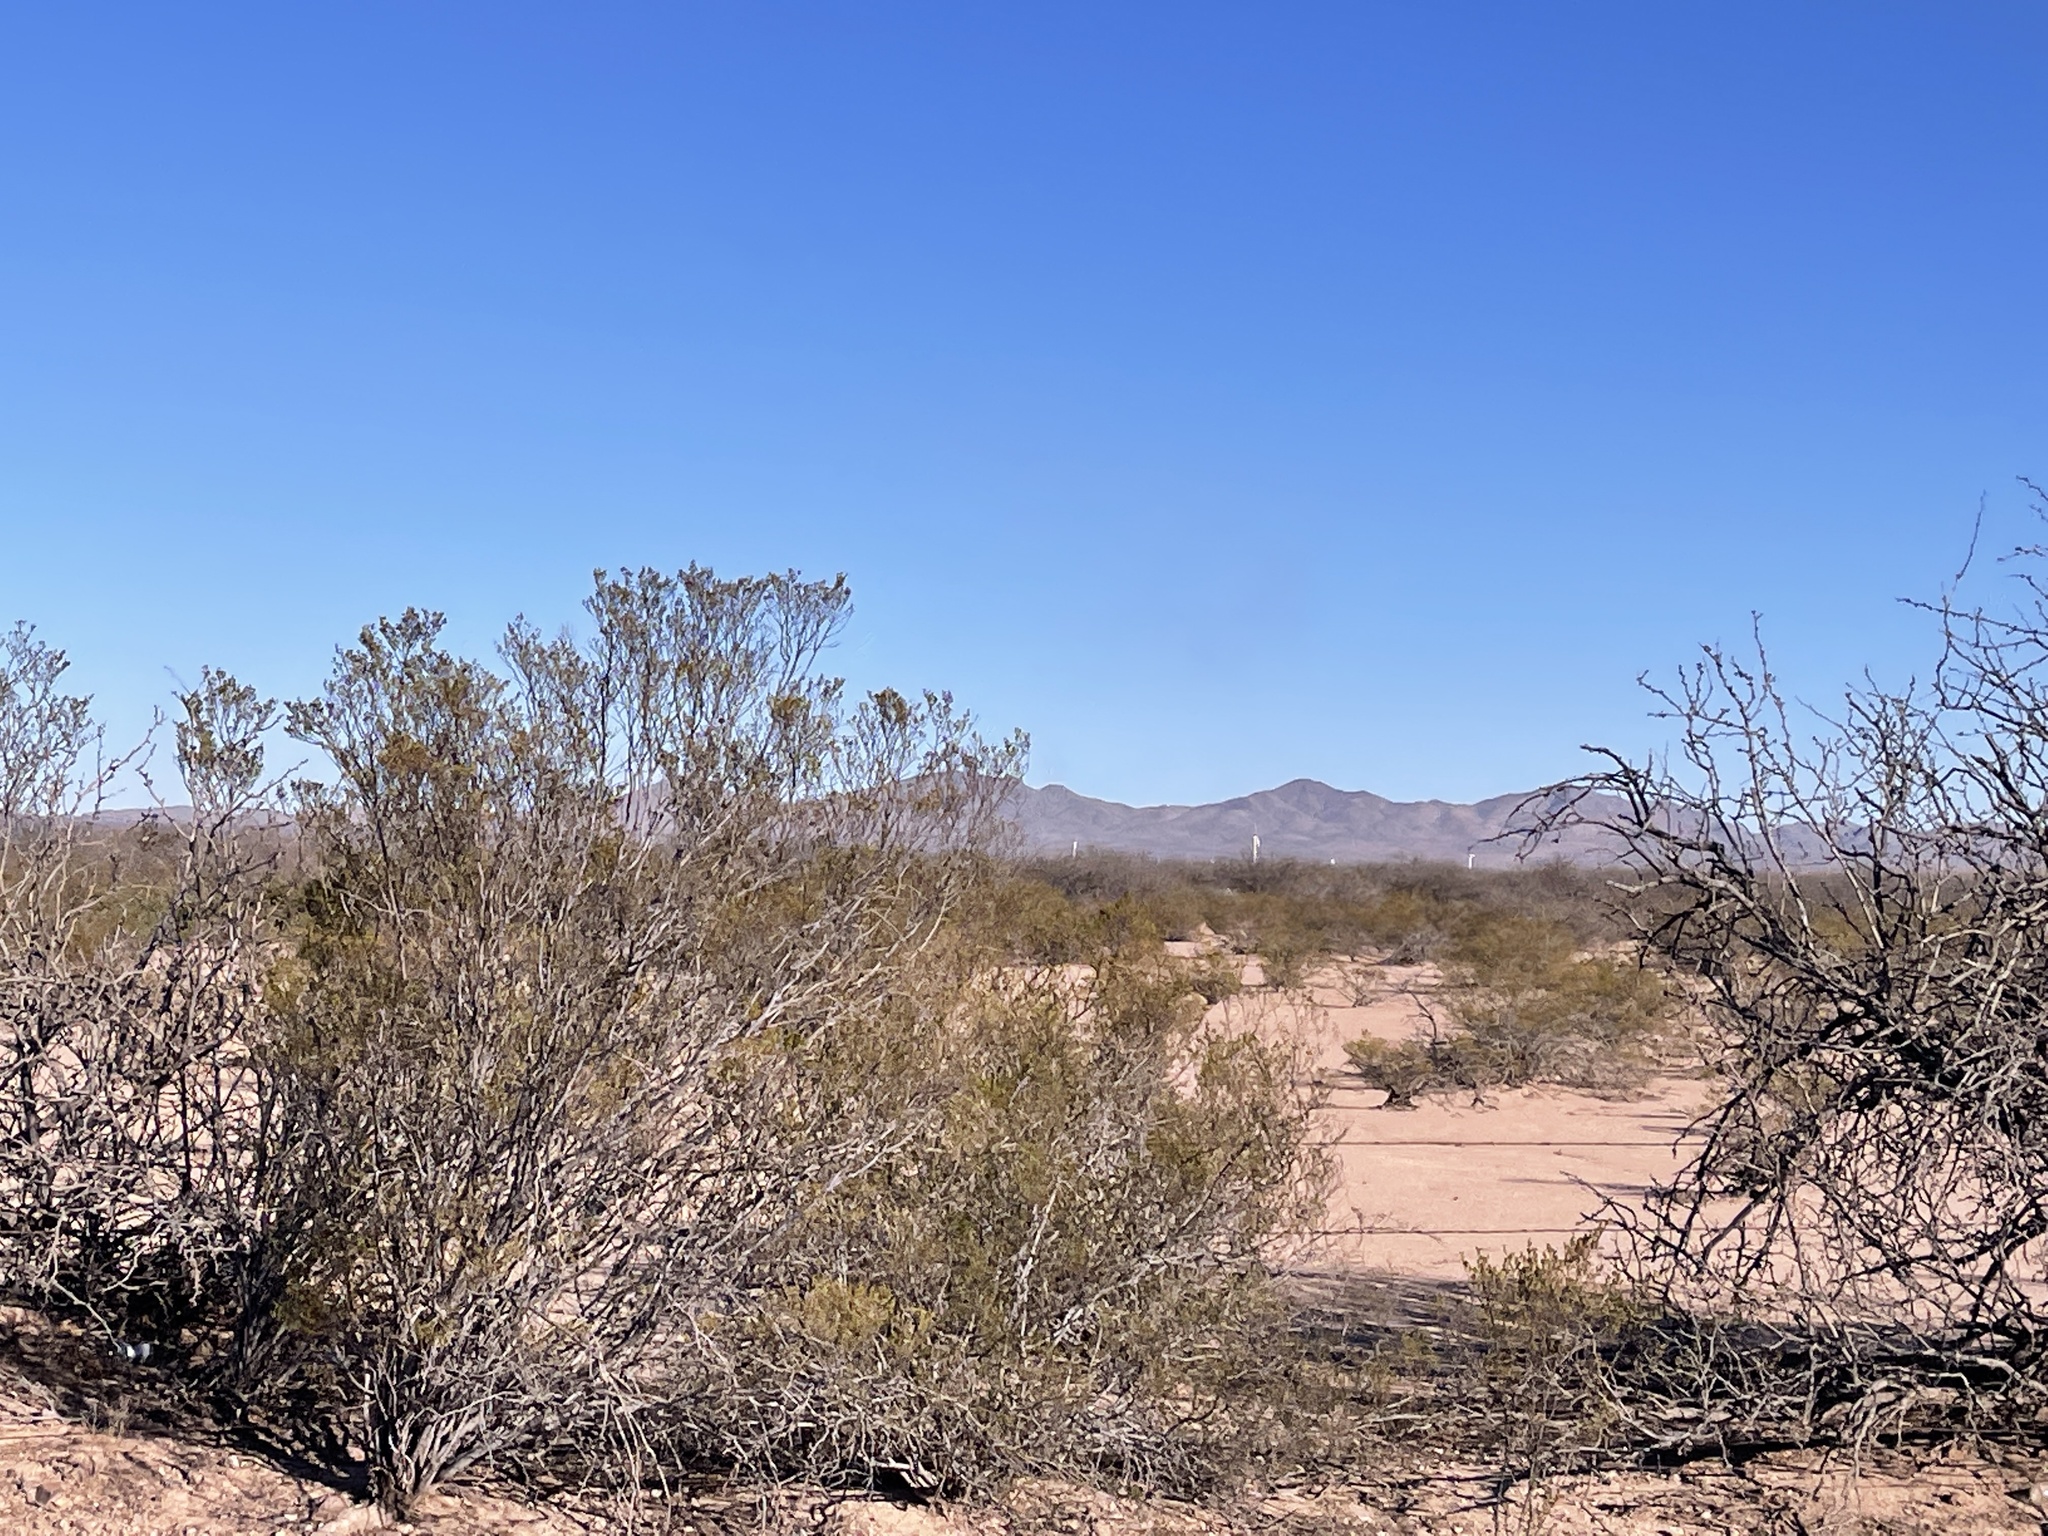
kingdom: Plantae
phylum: Tracheophyta
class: Magnoliopsida
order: Zygophyllales
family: Zygophyllaceae
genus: Larrea
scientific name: Larrea tridentata
